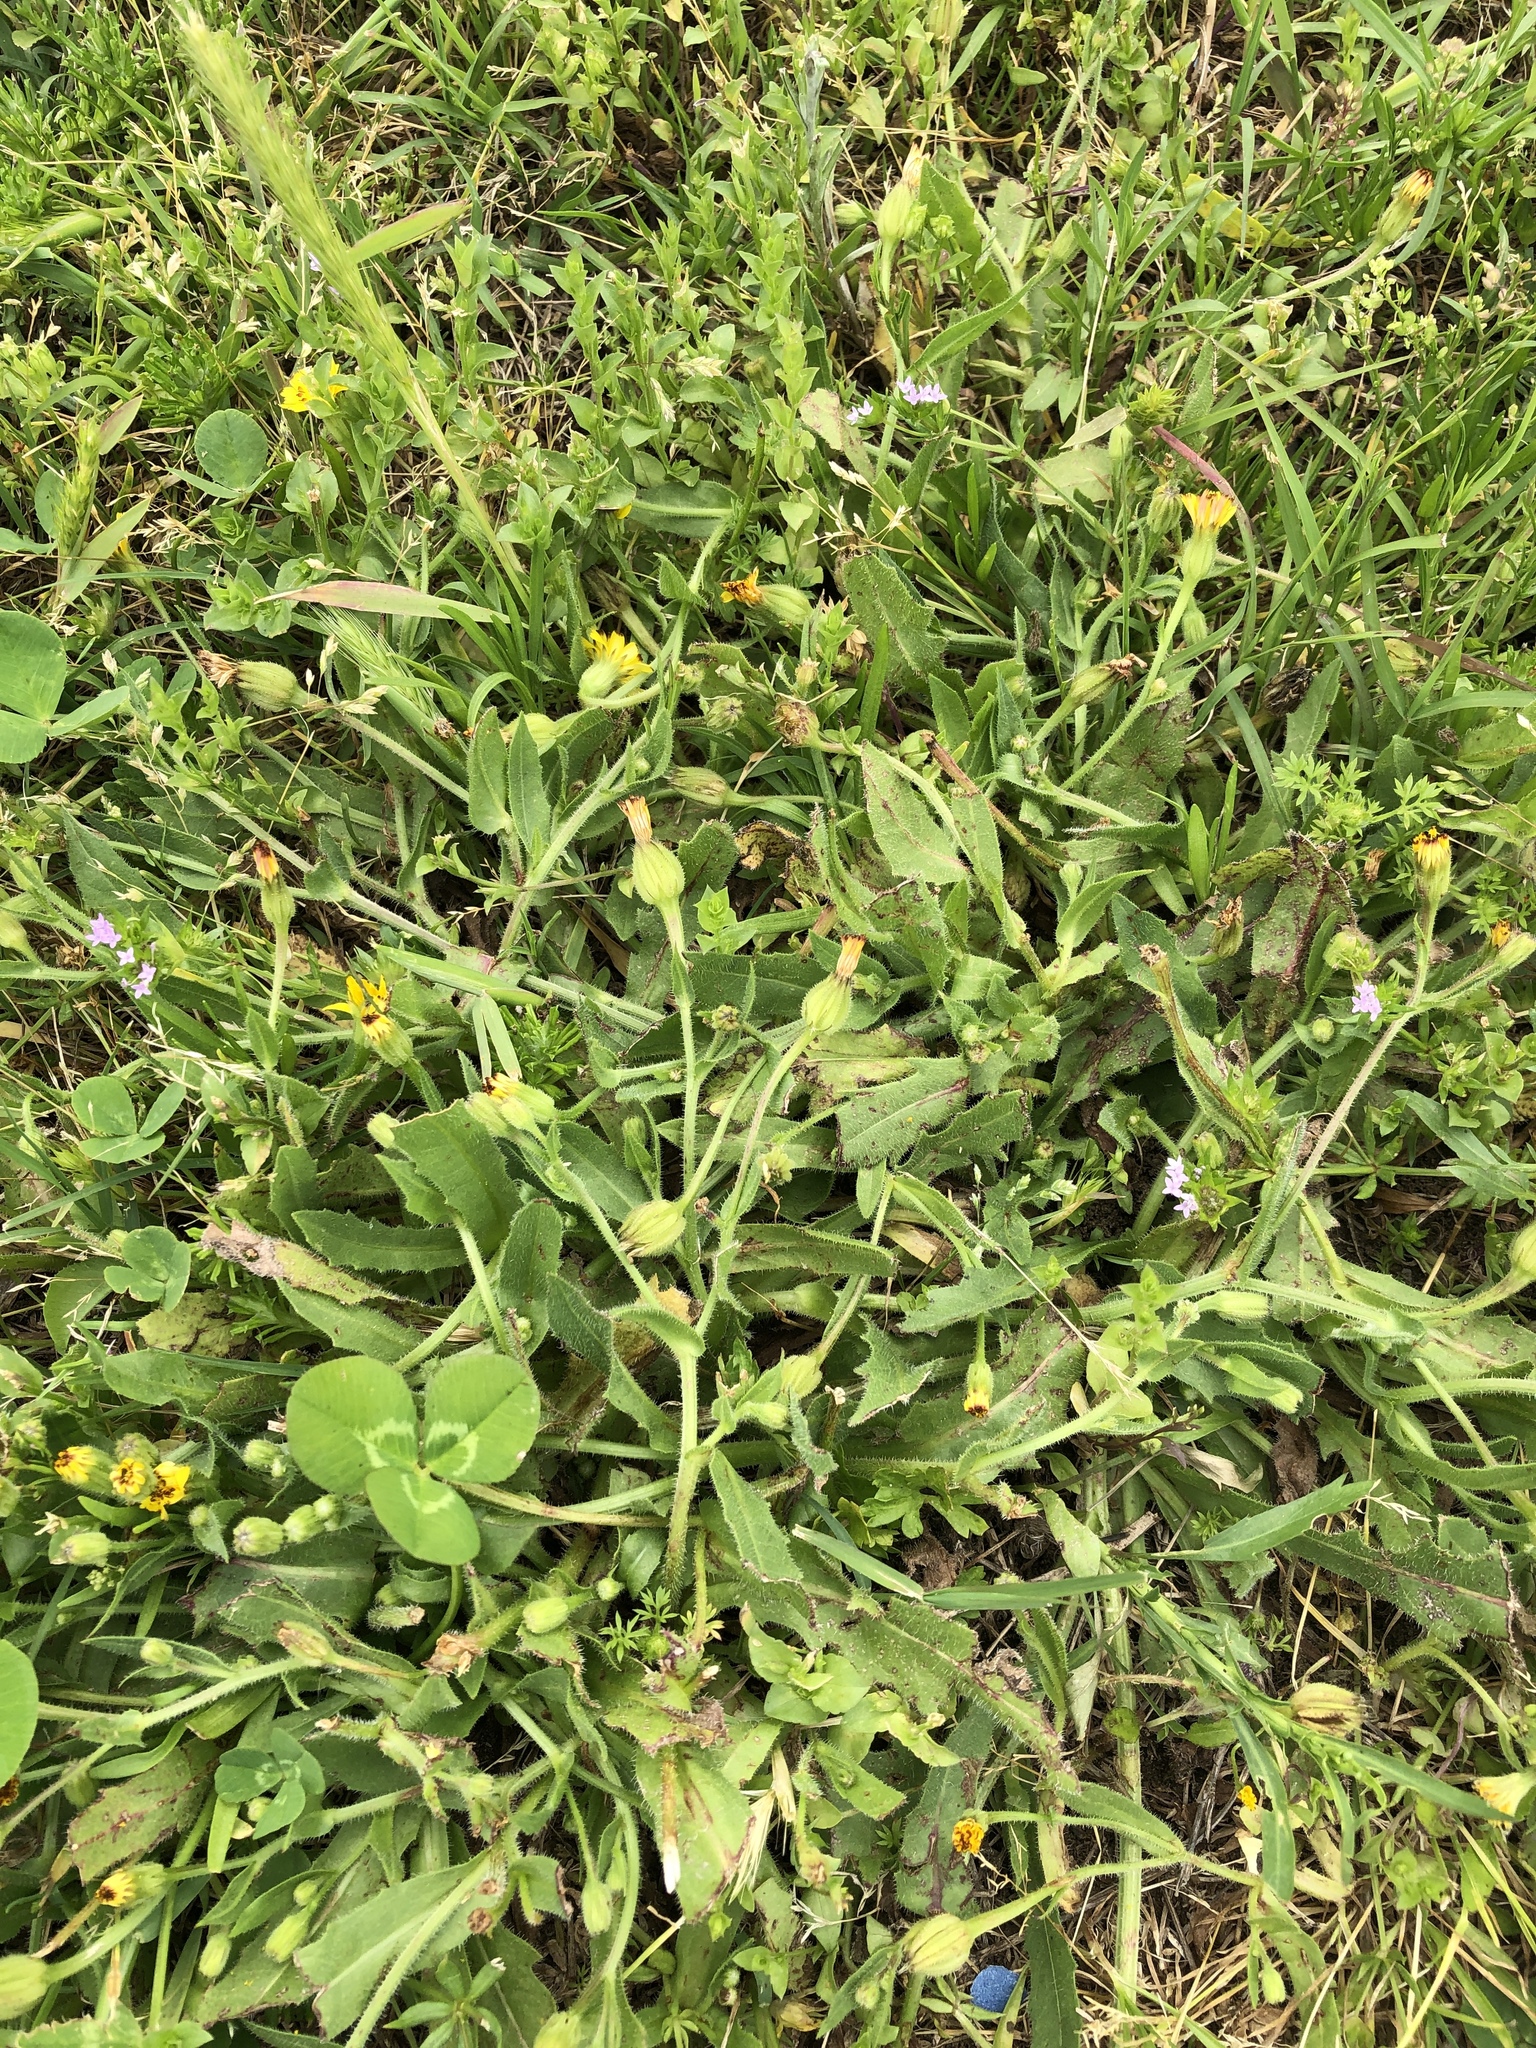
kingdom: Plantae
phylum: Tracheophyta
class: Magnoliopsida
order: Asterales
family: Asteraceae
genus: Hedypnois
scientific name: Hedypnois rhagadioloides
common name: Cretan weed
